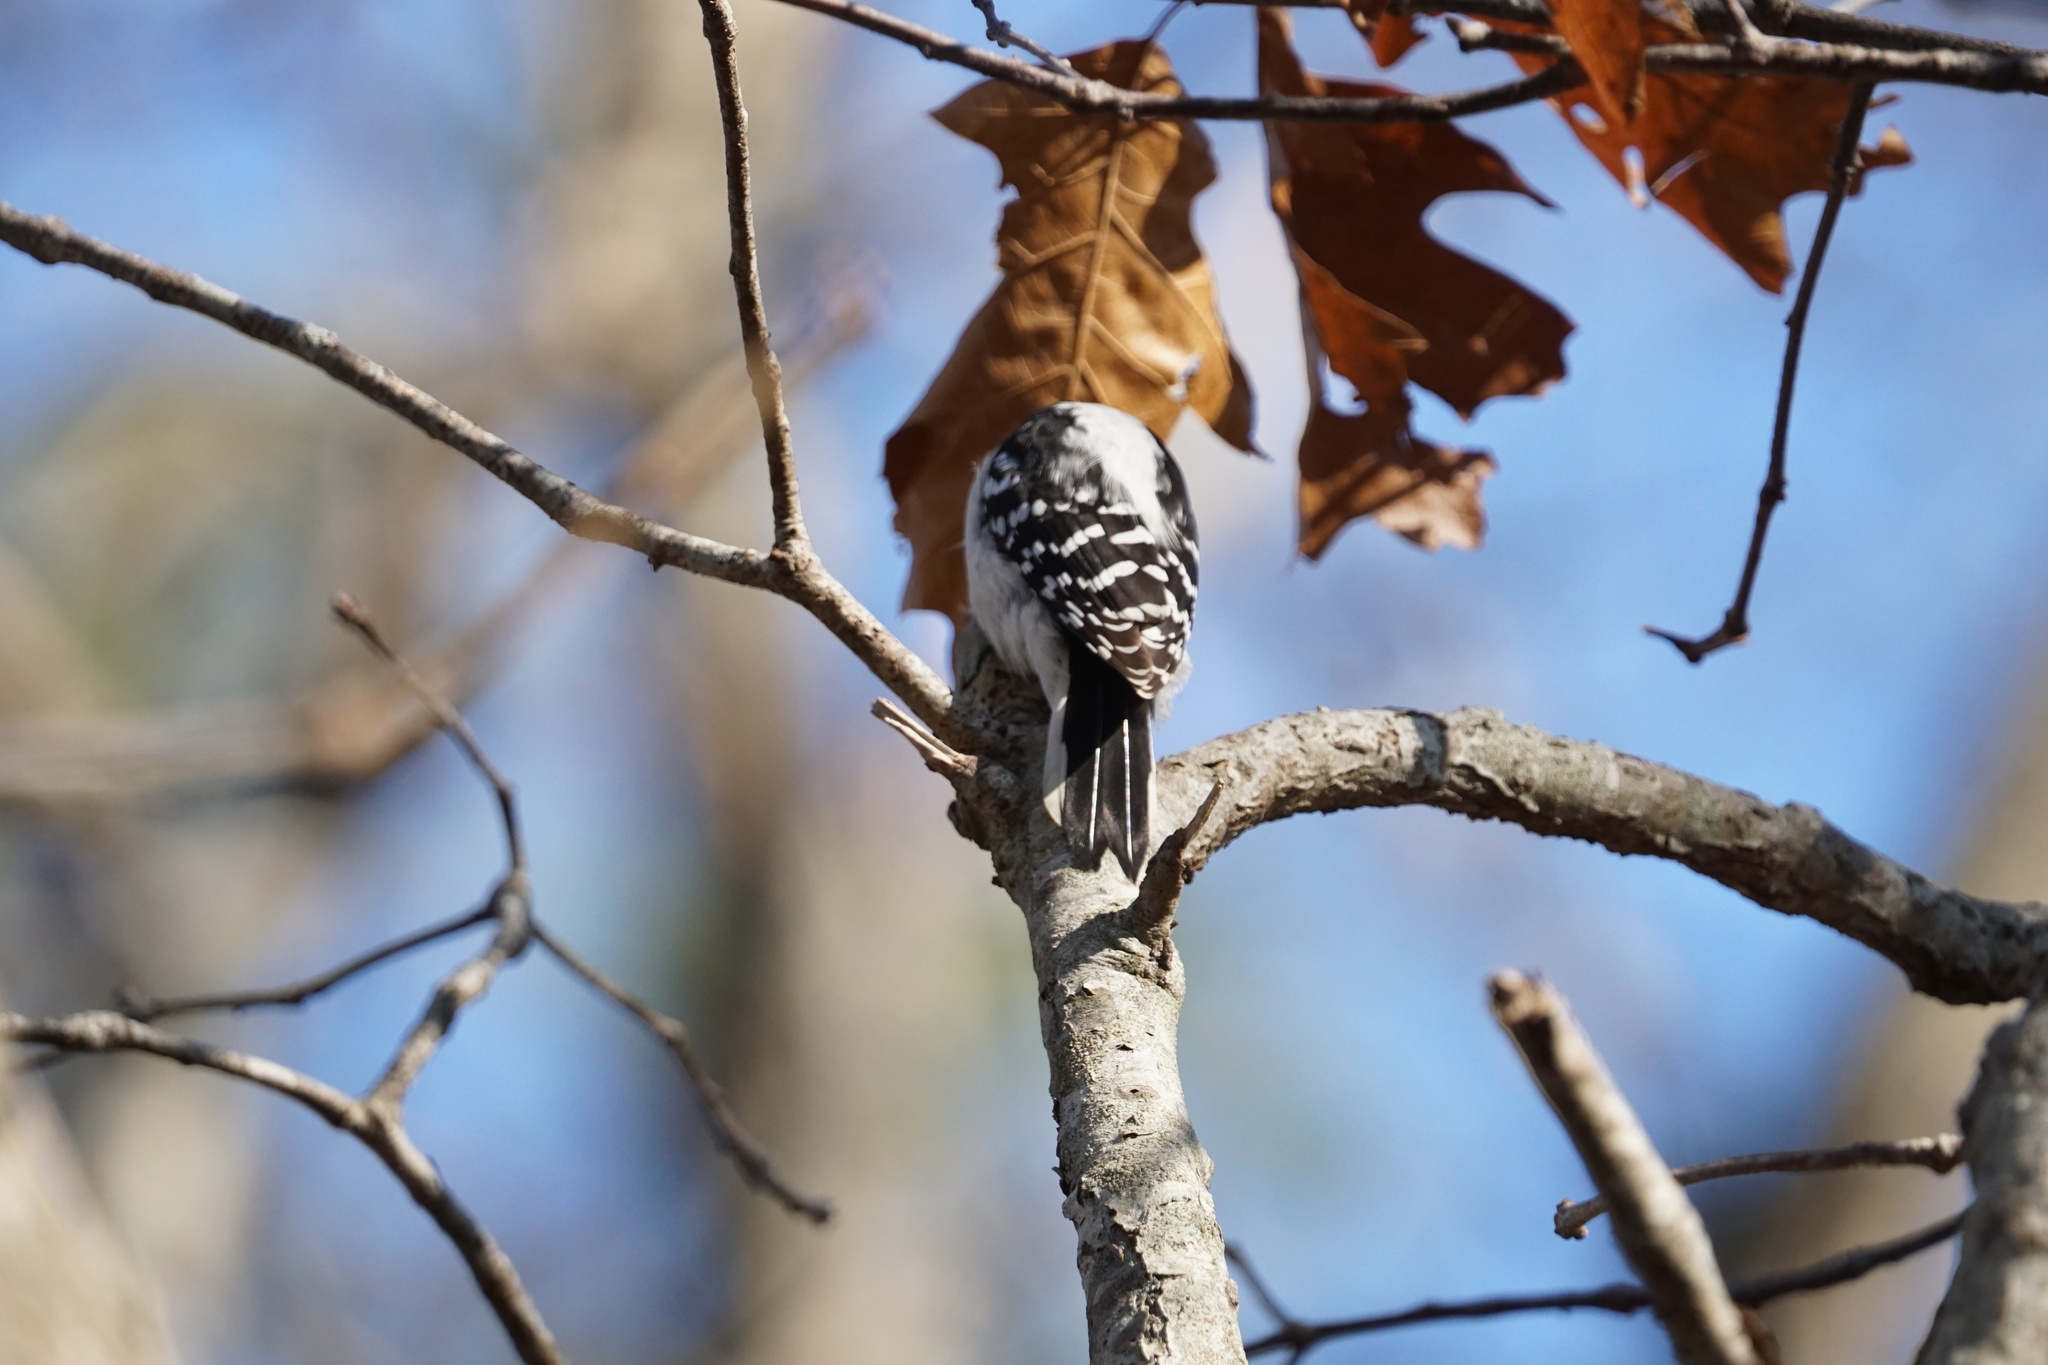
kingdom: Animalia
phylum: Chordata
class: Aves
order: Piciformes
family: Picidae
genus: Dryobates
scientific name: Dryobates pubescens
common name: Downy woodpecker
